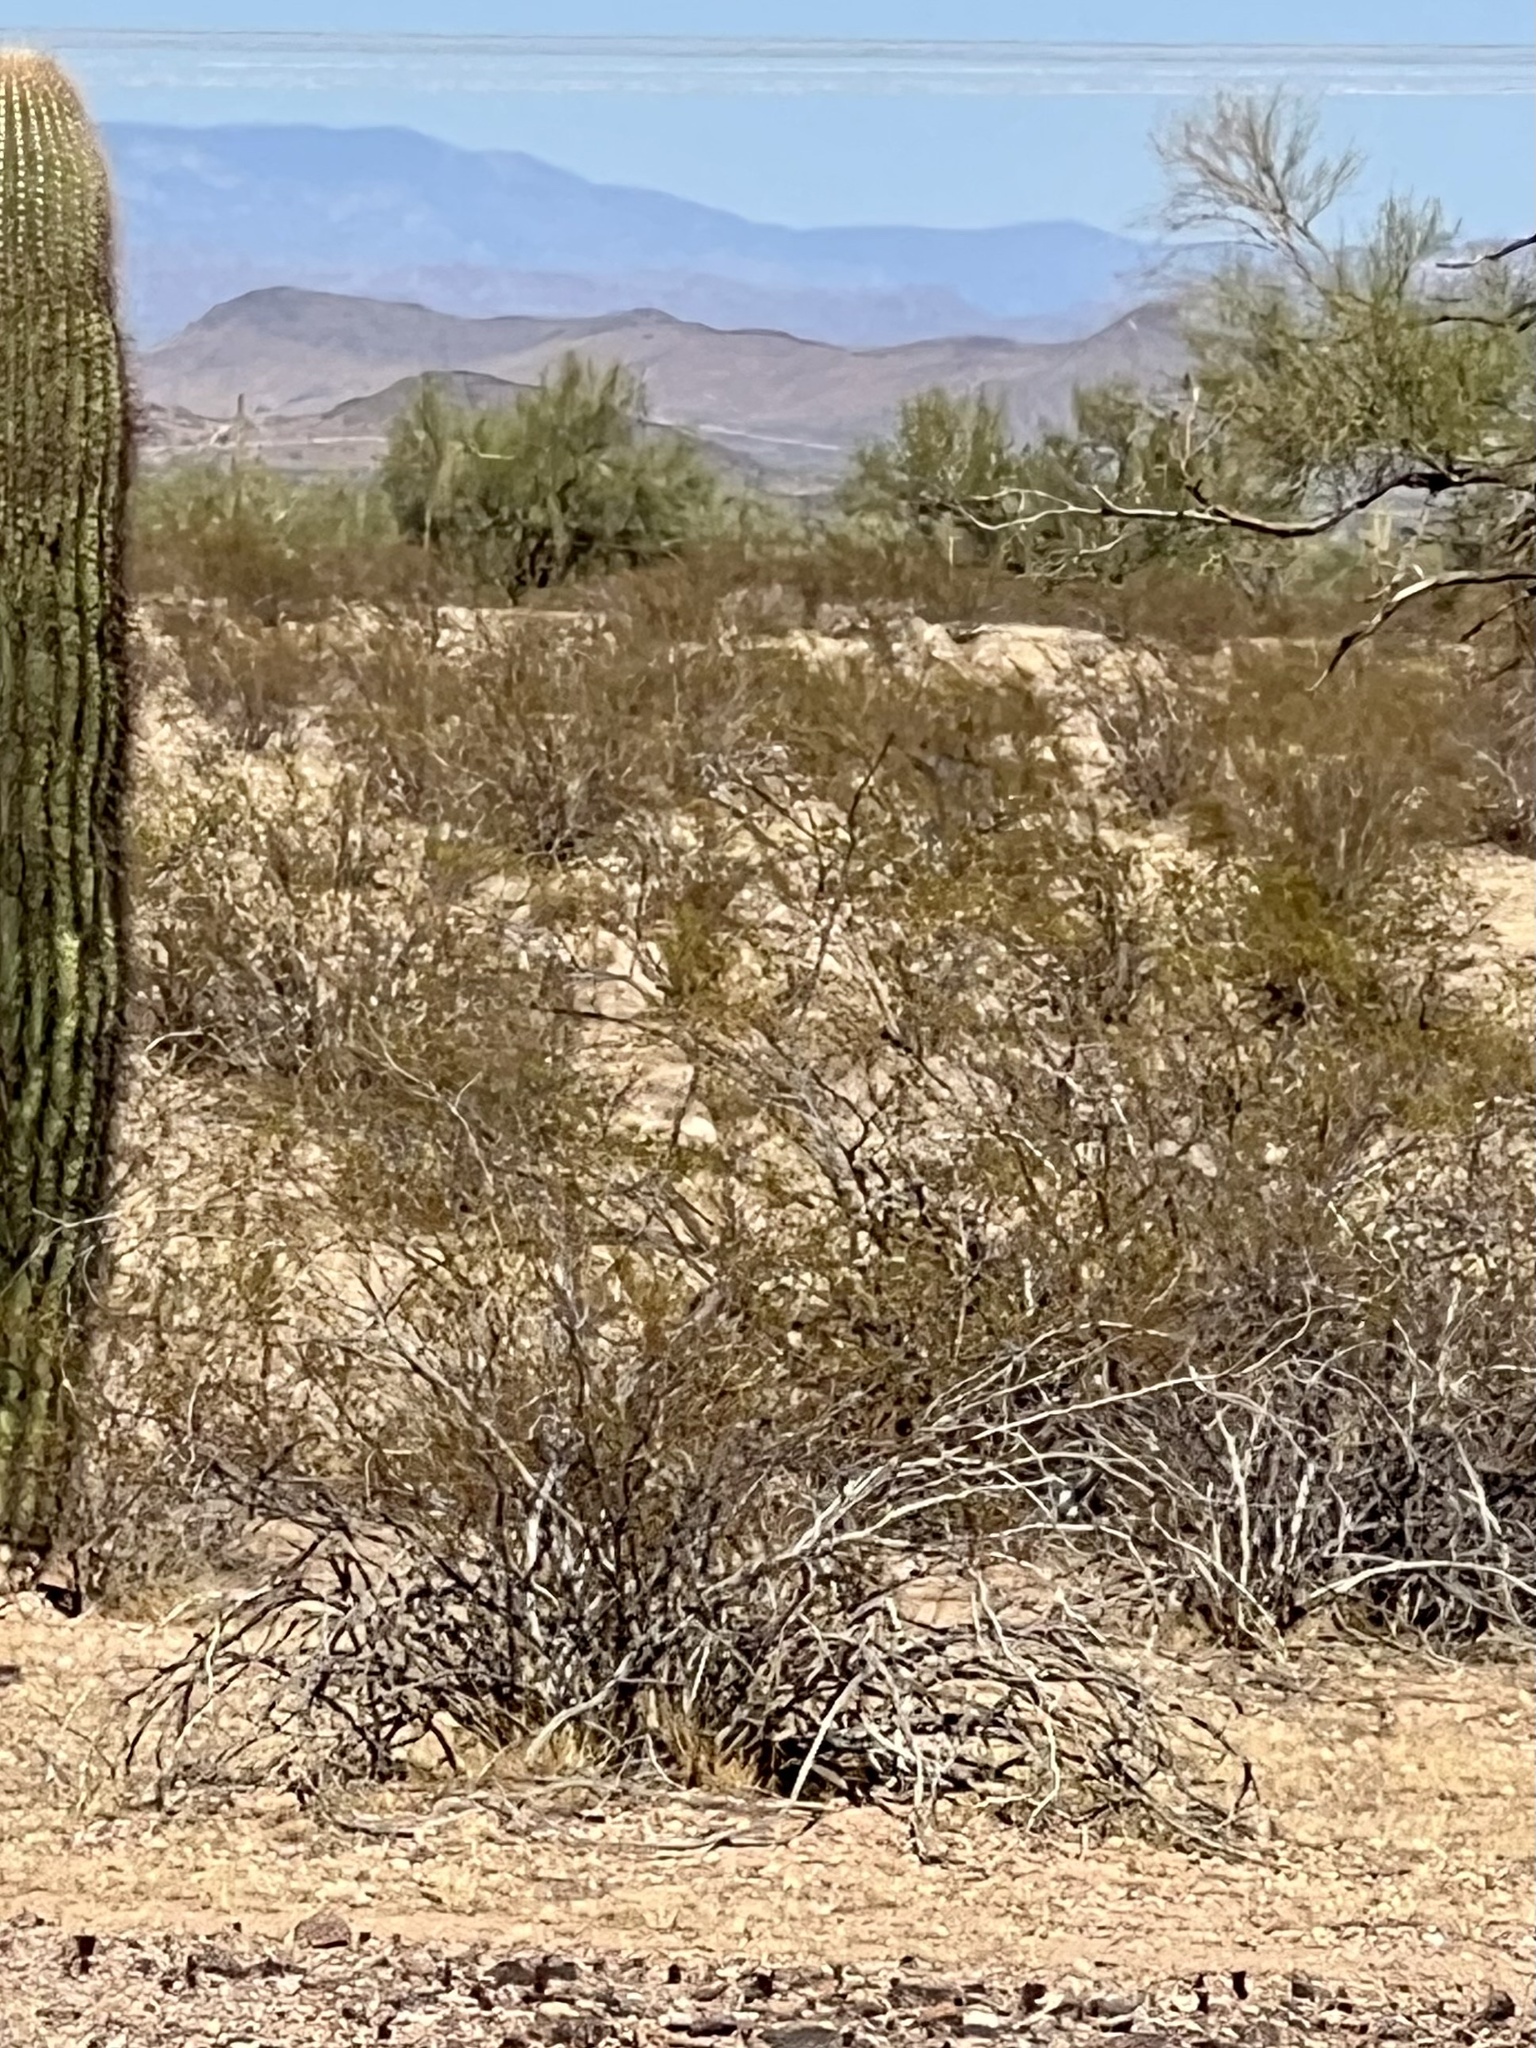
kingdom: Plantae
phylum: Tracheophyta
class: Magnoliopsida
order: Zygophyllales
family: Zygophyllaceae
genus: Larrea
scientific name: Larrea tridentata
